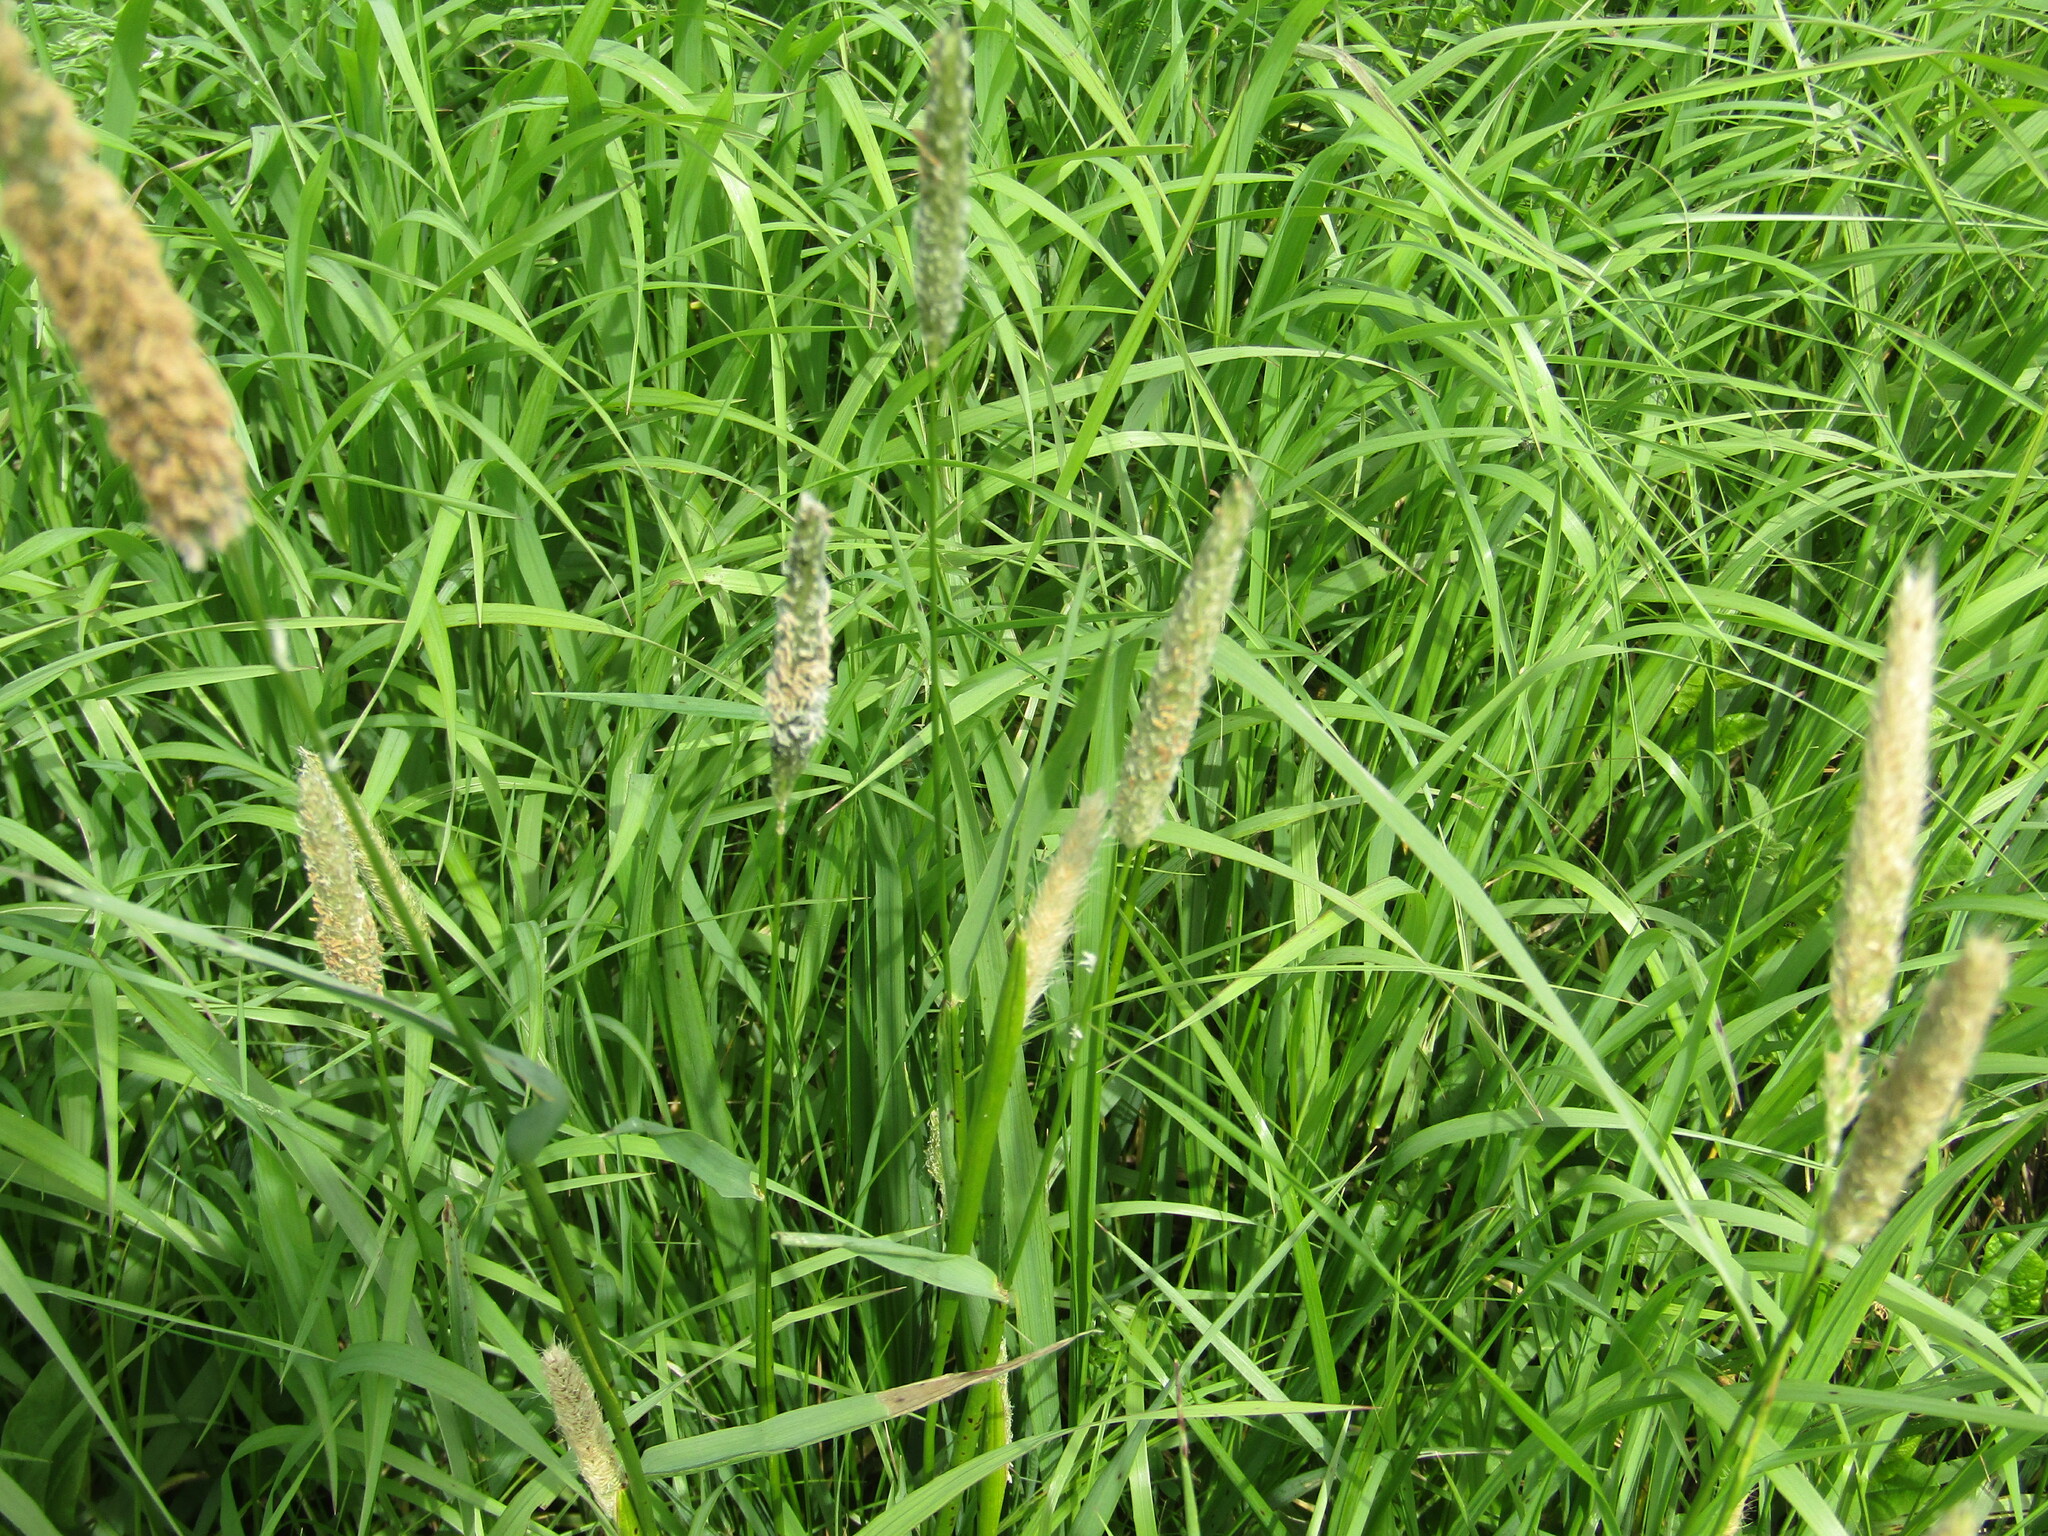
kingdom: Plantae
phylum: Tracheophyta
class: Liliopsida
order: Poales
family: Poaceae
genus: Alopecurus
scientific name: Alopecurus pratensis
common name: Meadow foxtail
